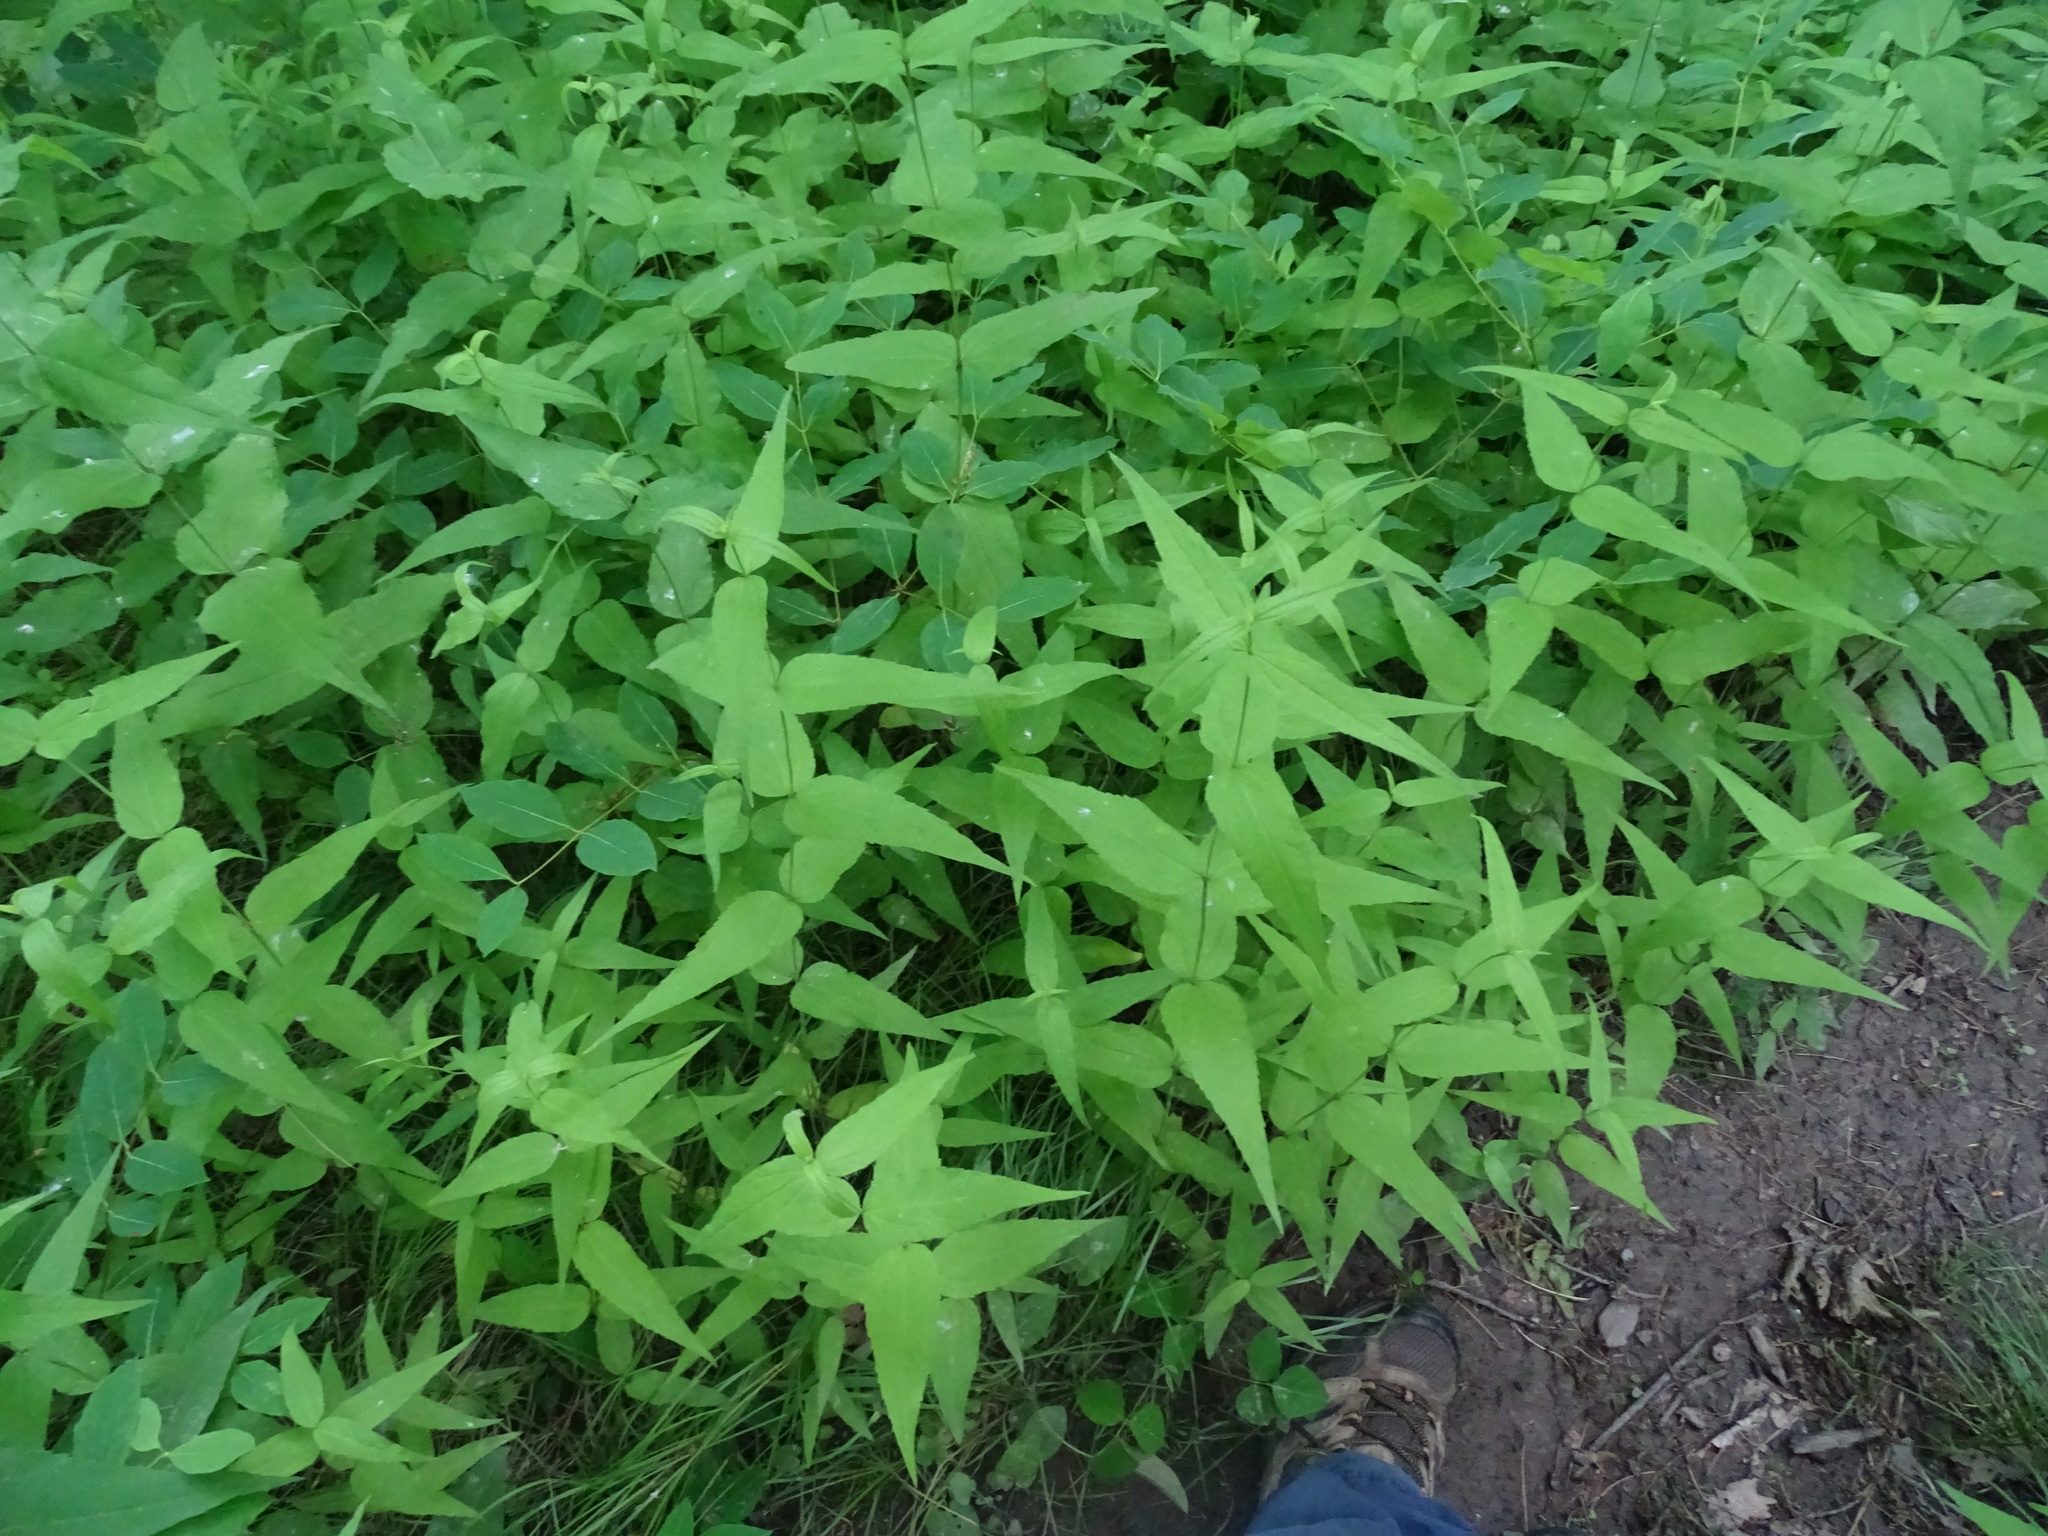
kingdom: Plantae
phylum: Tracheophyta
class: Magnoliopsida
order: Asterales
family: Asteraceae
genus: Helianthus
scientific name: Helianthus divaricatus
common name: Divergent sunflower
